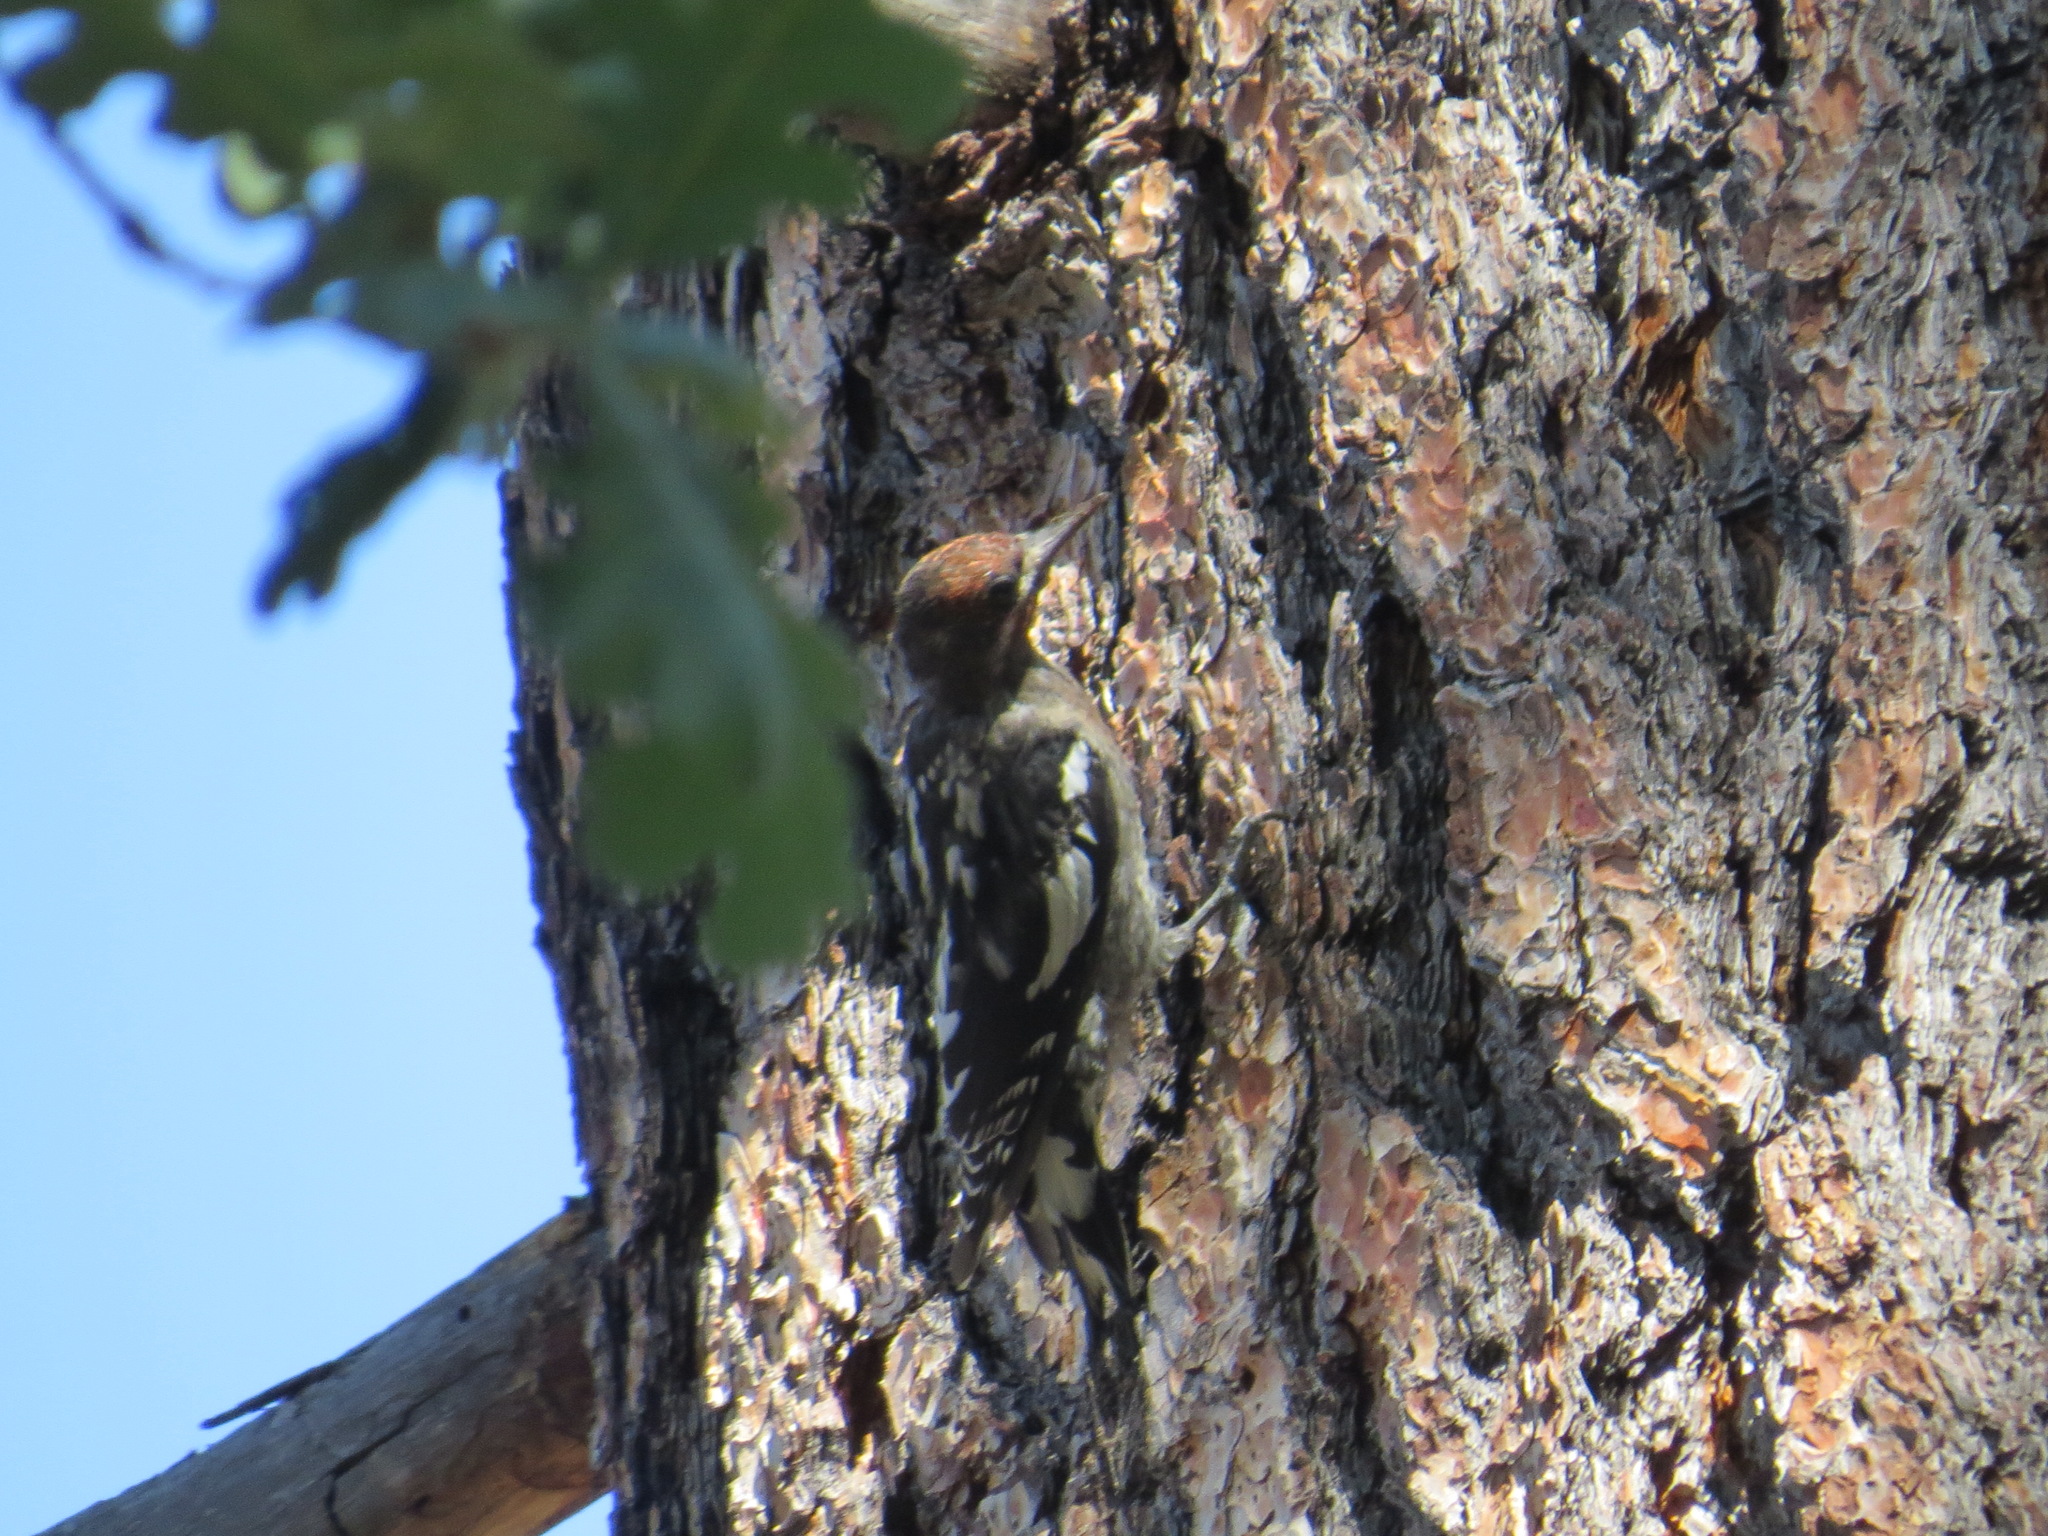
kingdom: Animalia
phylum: Chordata
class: Aves
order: Piciformes
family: Picidae
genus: Sphyrapicus
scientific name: Sphyrapicus ruber
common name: Red-breasted sapsucker
